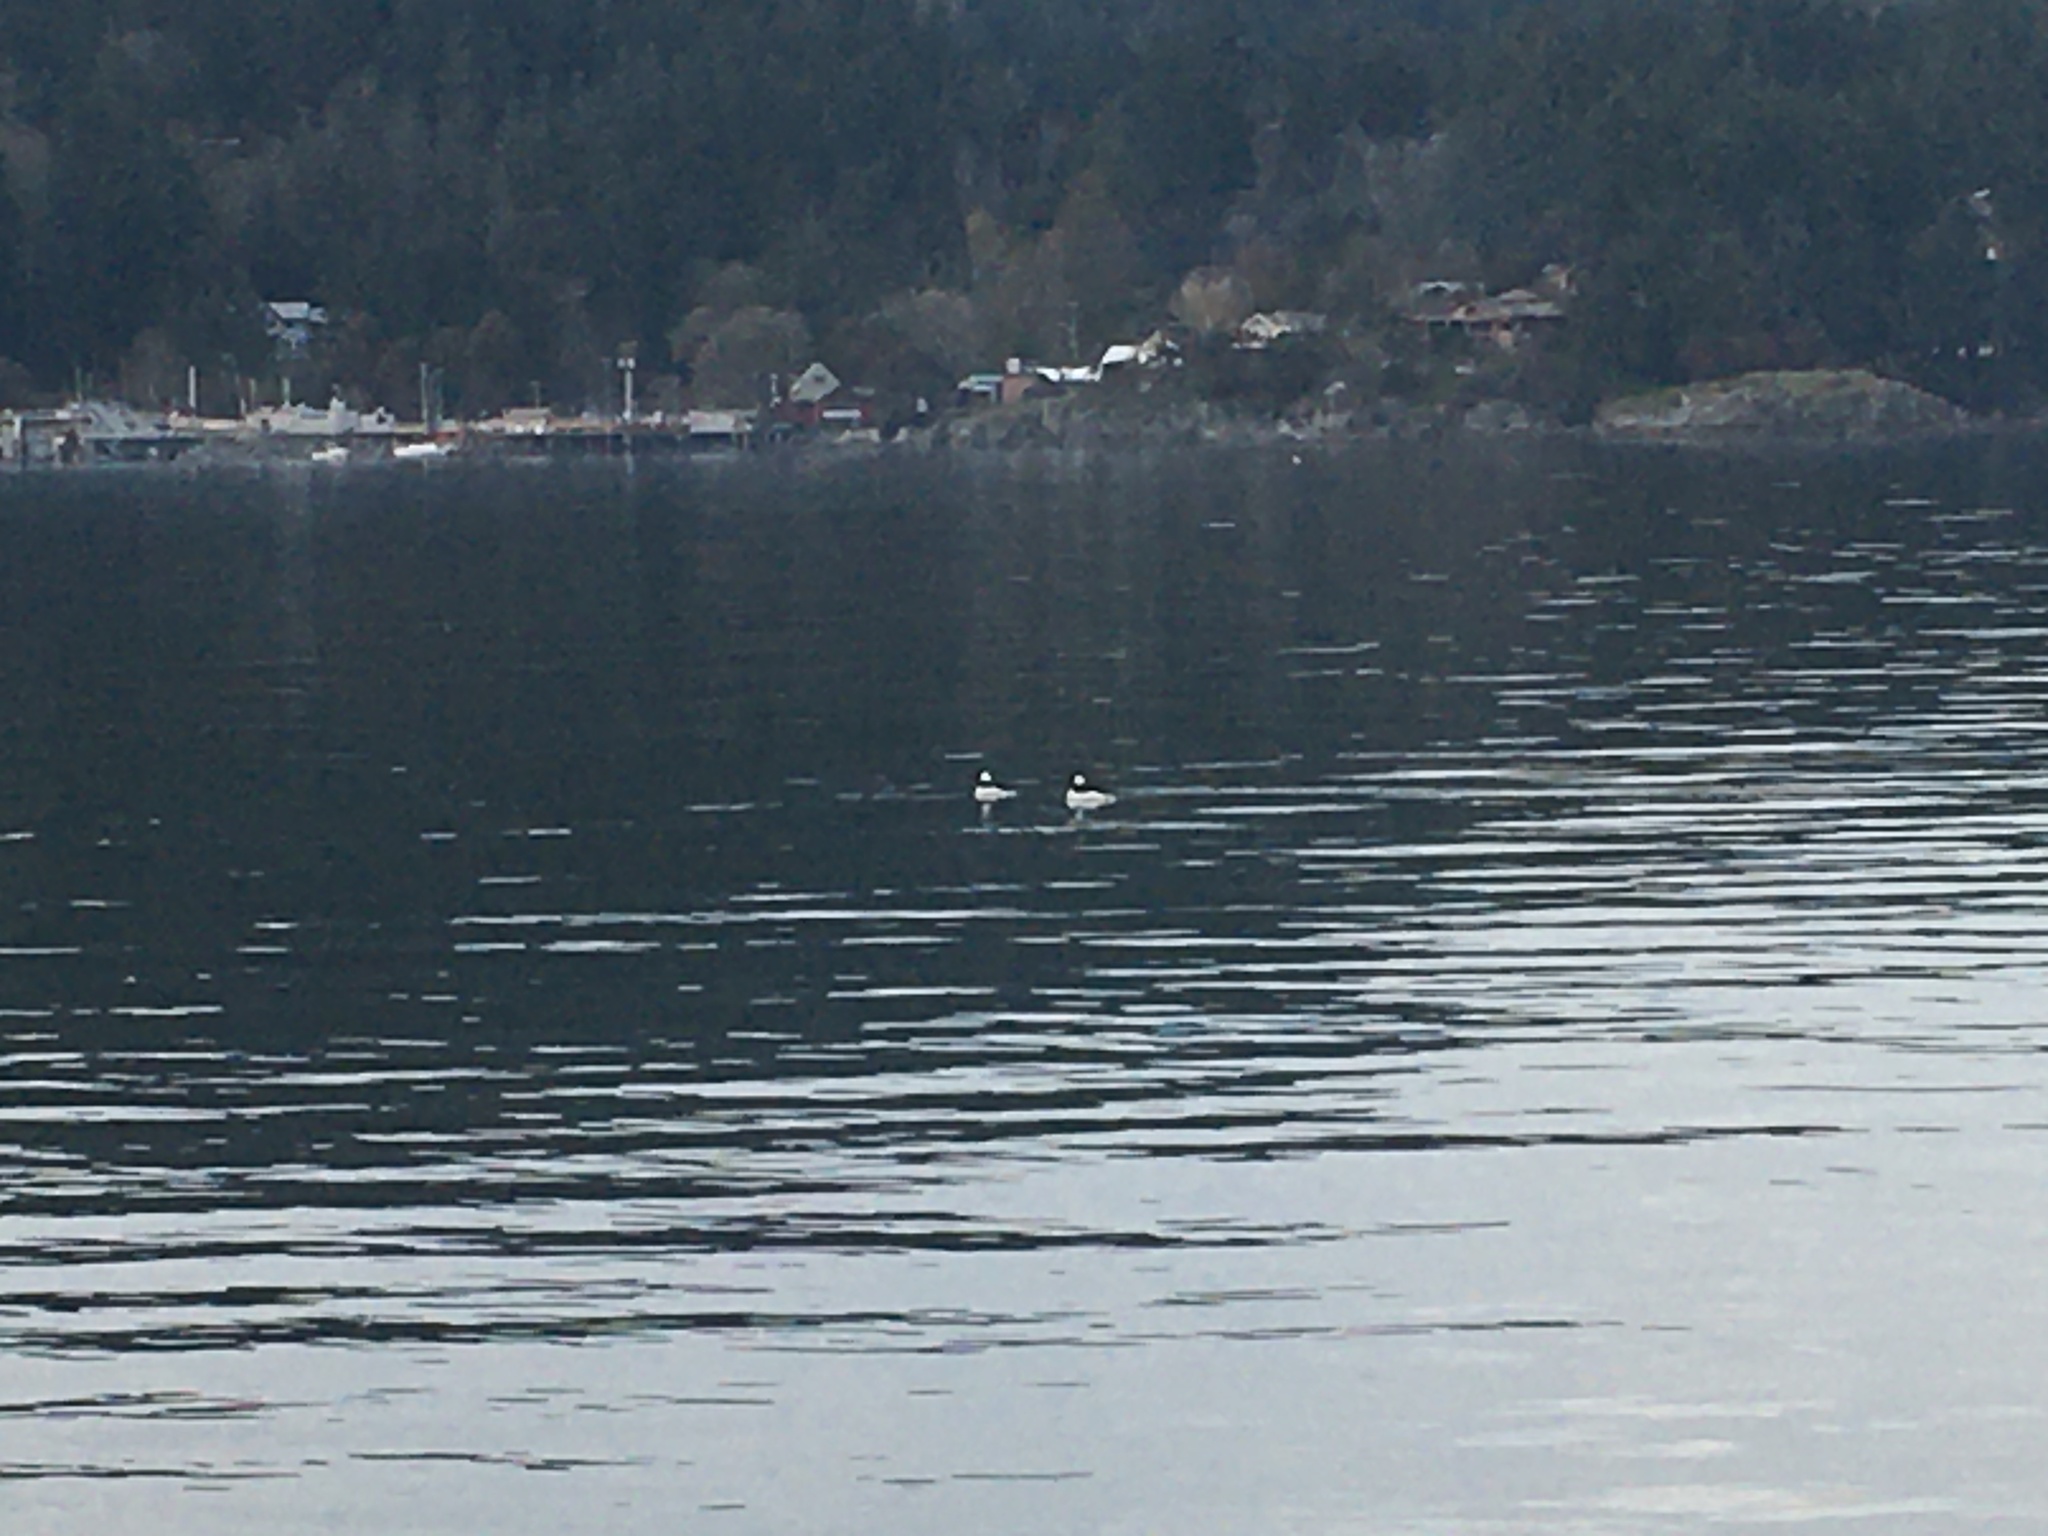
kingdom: Animalia
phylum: Chordata
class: Aves
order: Anseriformes
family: Anatidae
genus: Bucephala
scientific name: Bucephala albeola
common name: Bufflehead
